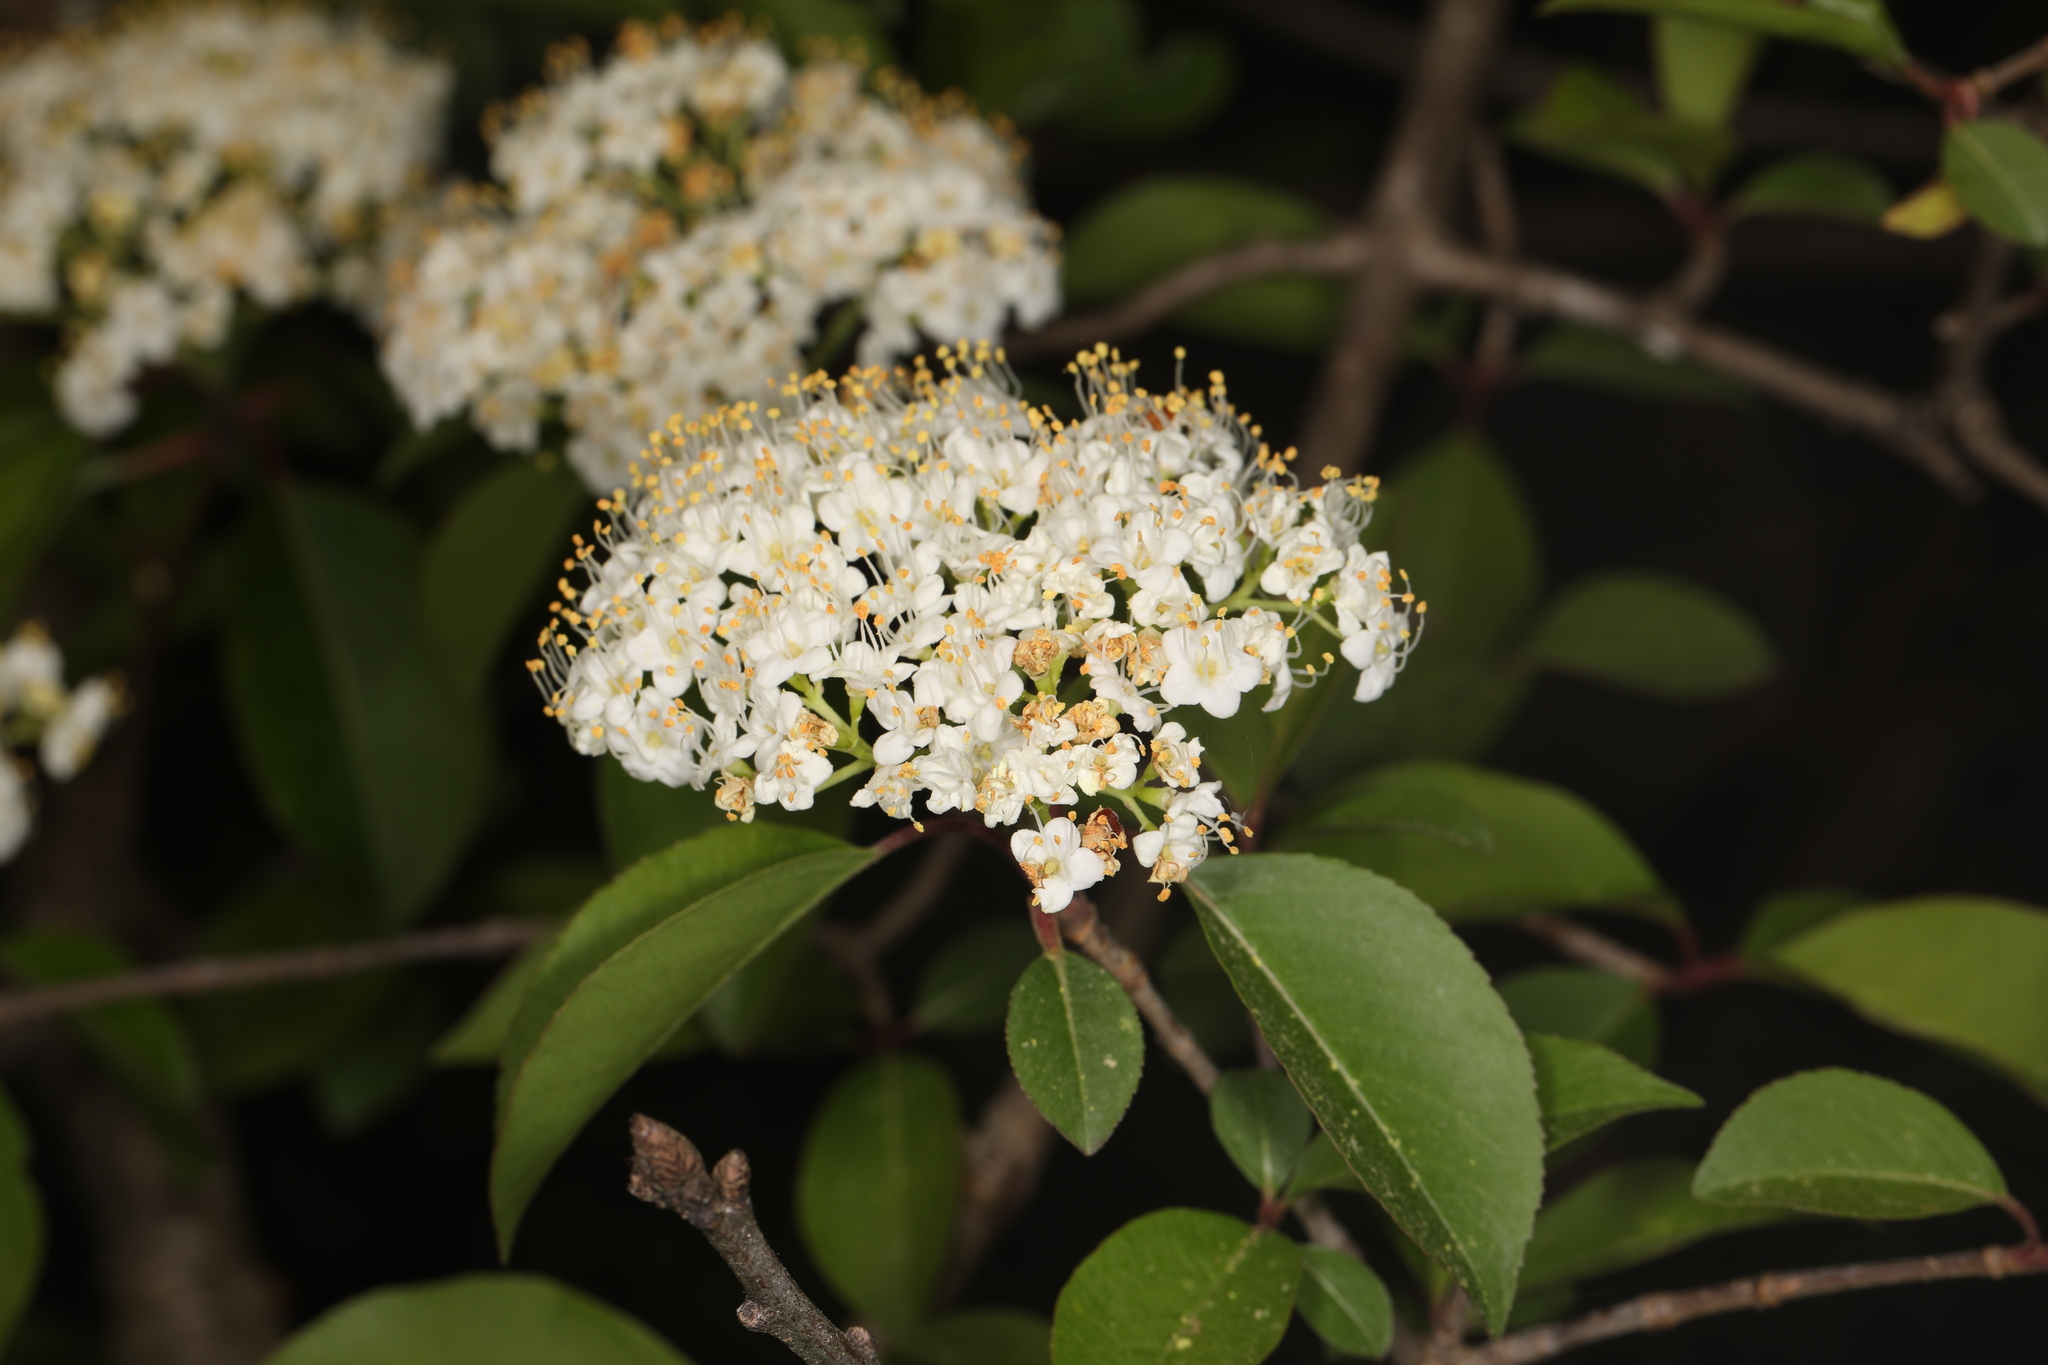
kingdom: Plantae
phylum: Tracheophyta
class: Magnoliopsida
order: Dipsacales
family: Viburnaceae
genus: Viburnum
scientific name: Viburnum prunifolium
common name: Black haw
